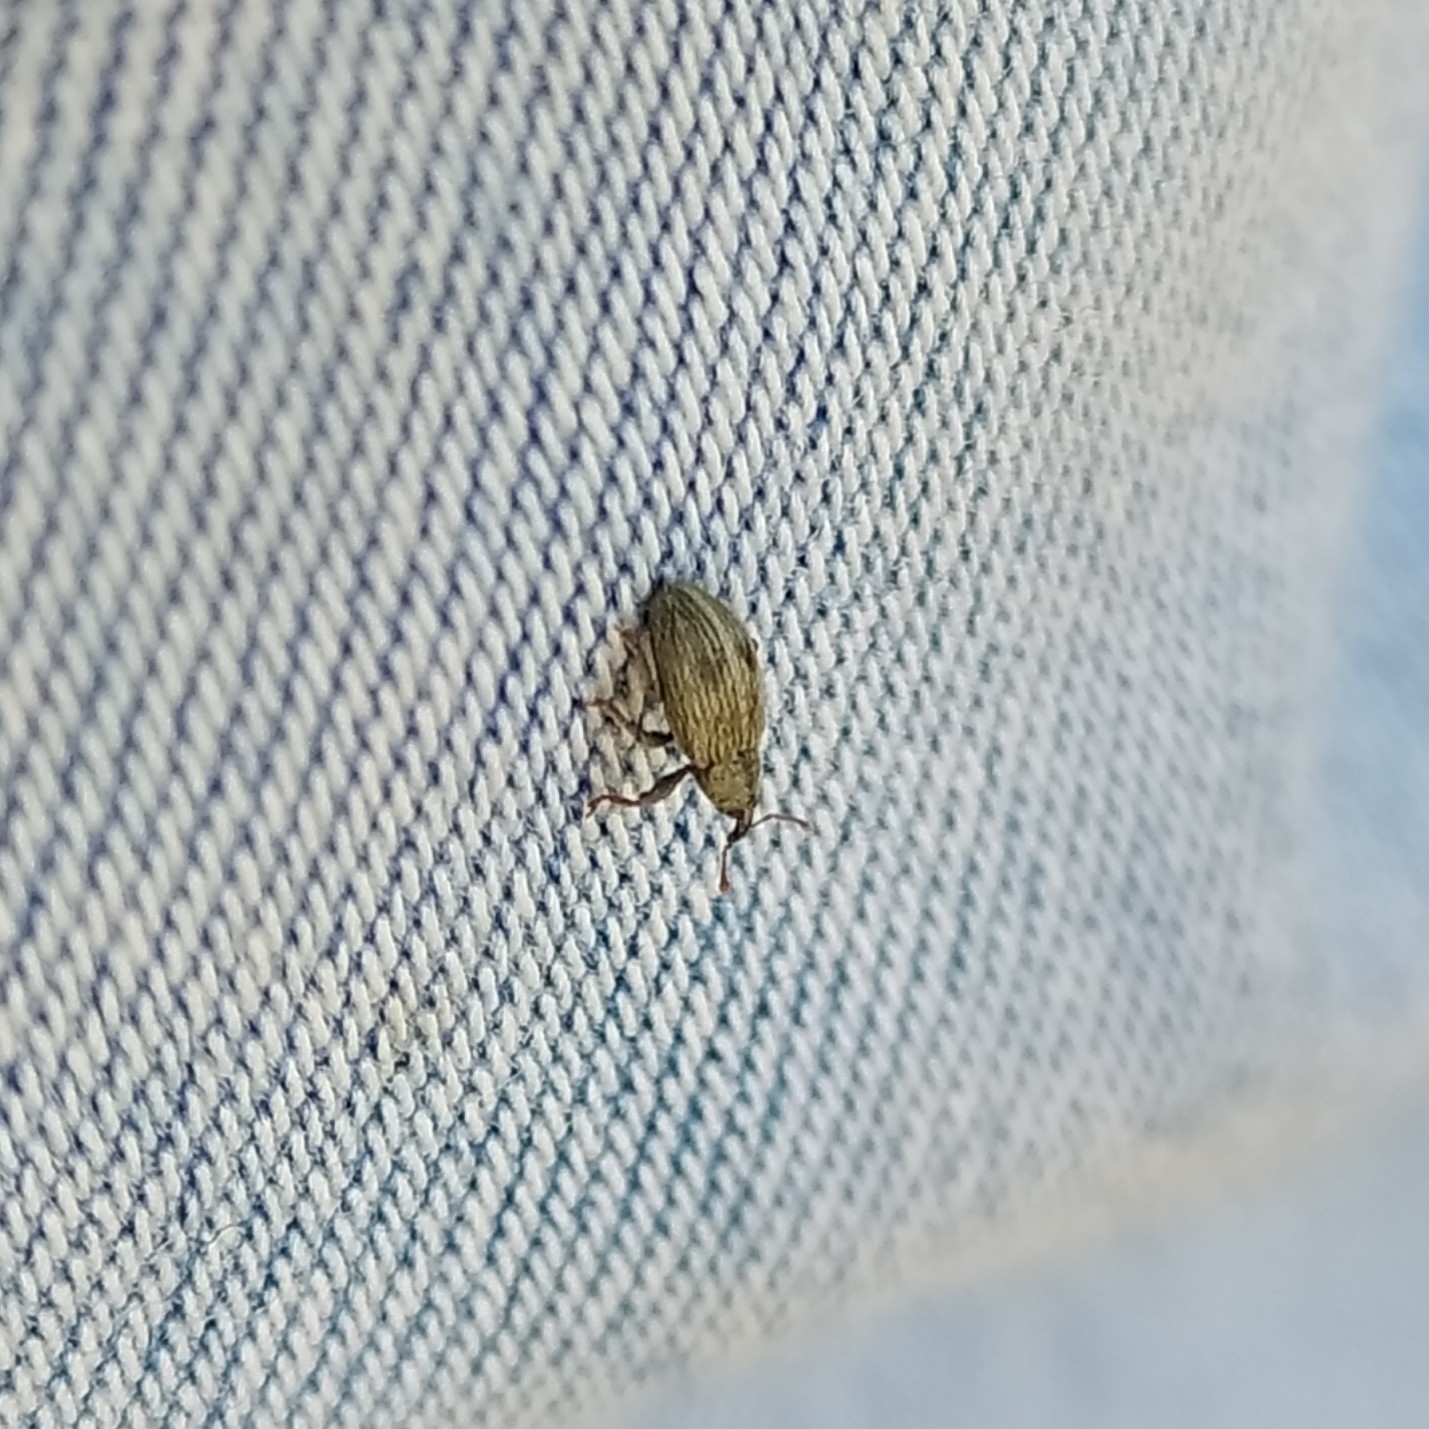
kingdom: Animalia
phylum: Arthropoda
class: Insecta
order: Coleoptera
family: Curculionidae
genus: Ellescus
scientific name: Ellescus bipunctatus
